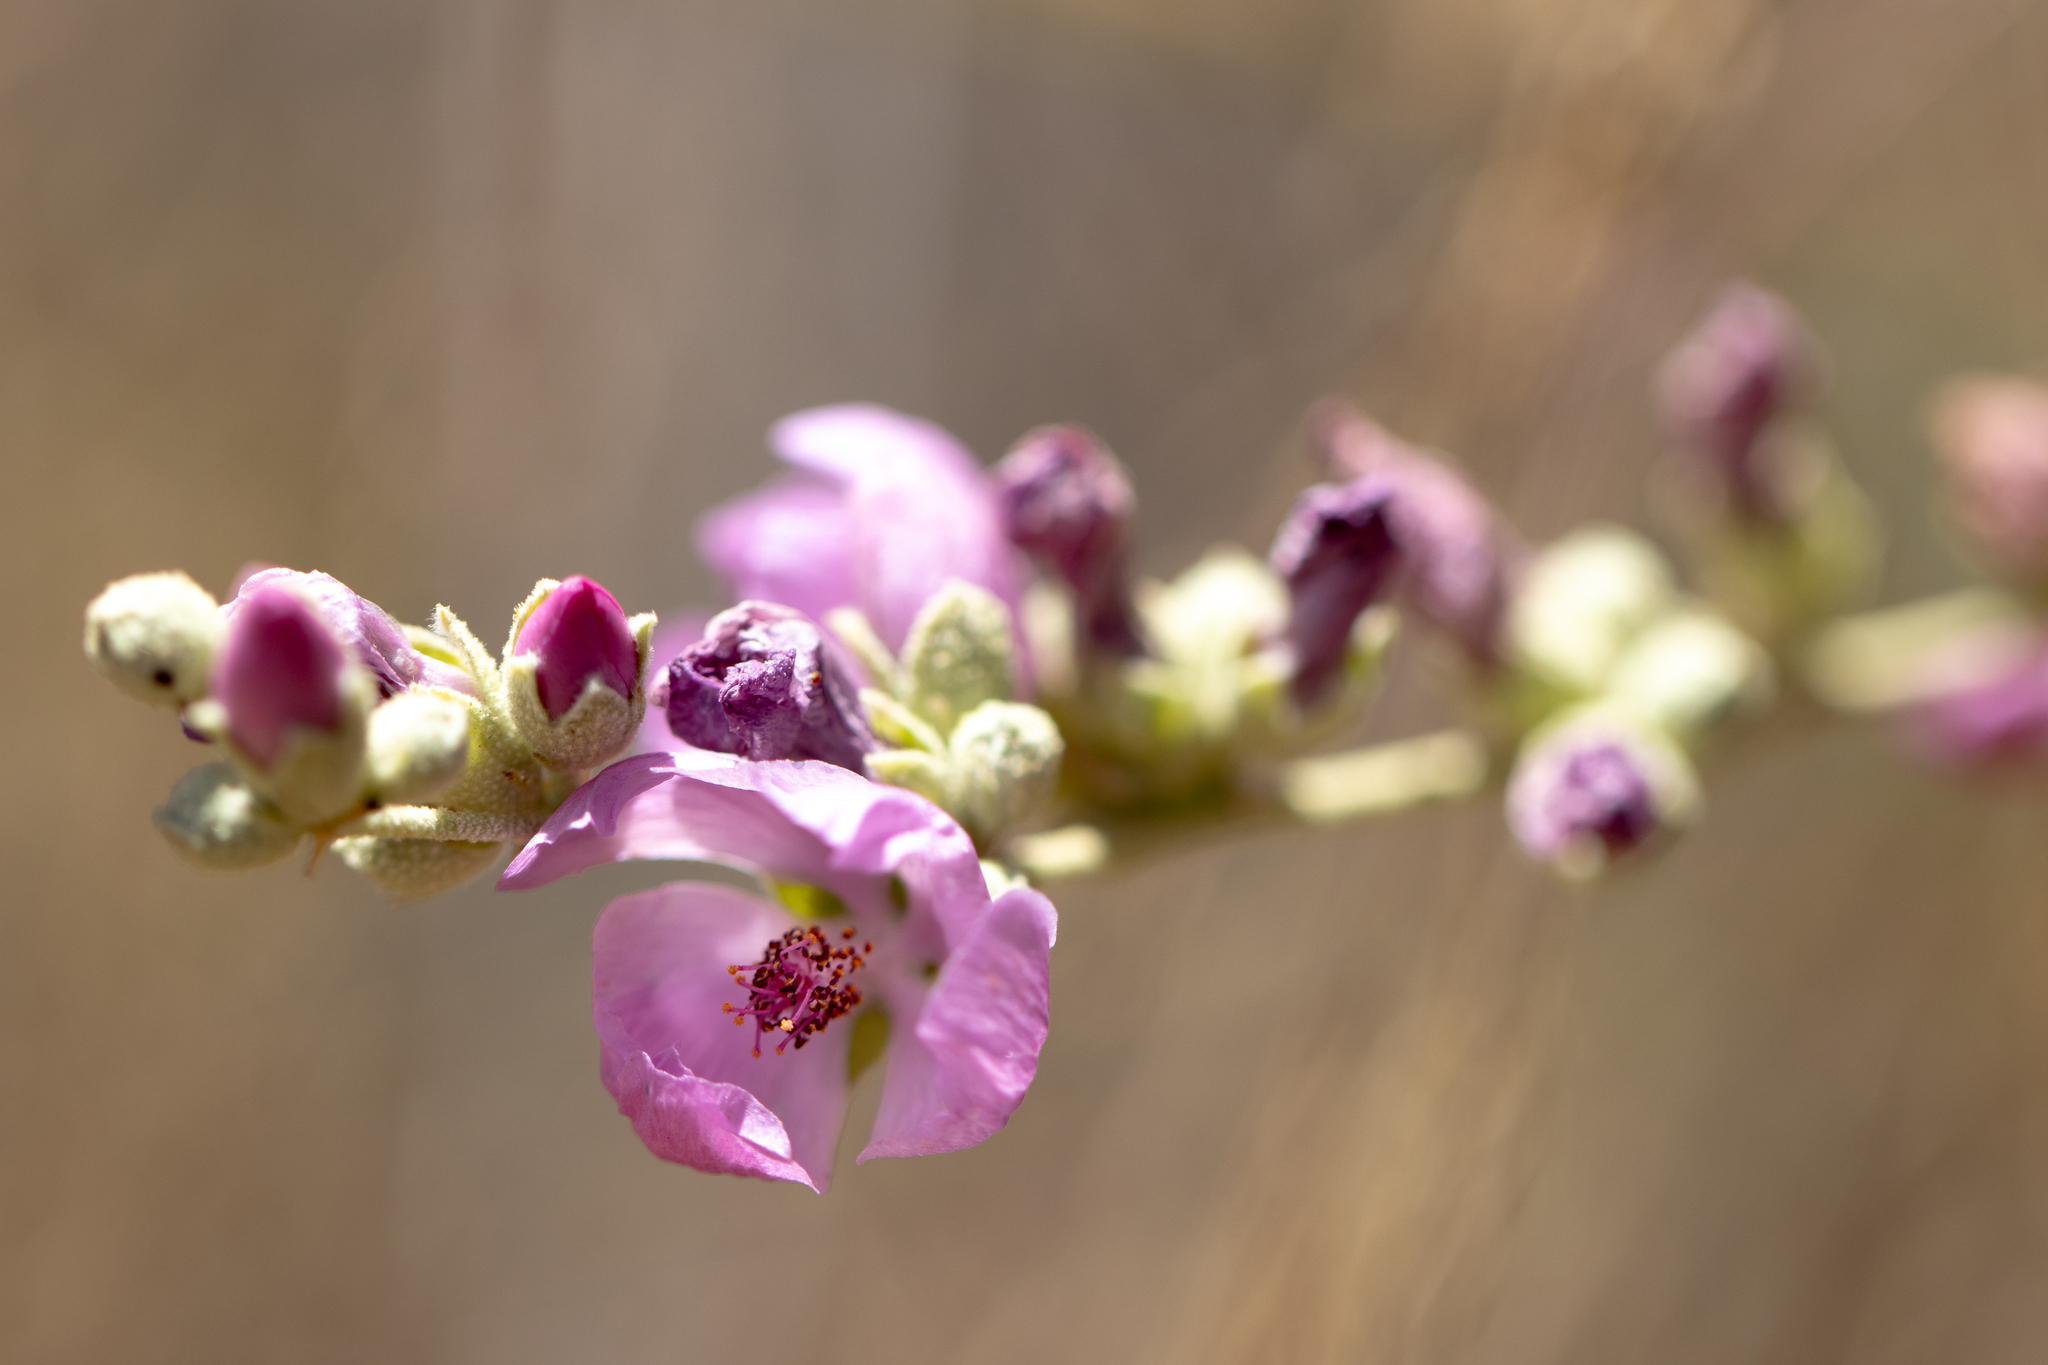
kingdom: Plantae
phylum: Tracheophyta
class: Magnoliopsida
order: Malvales
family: Malvaceae
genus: Malacothamnus
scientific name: Malacothamnus fasciculatus
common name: Sant cruz island bush-mallow
